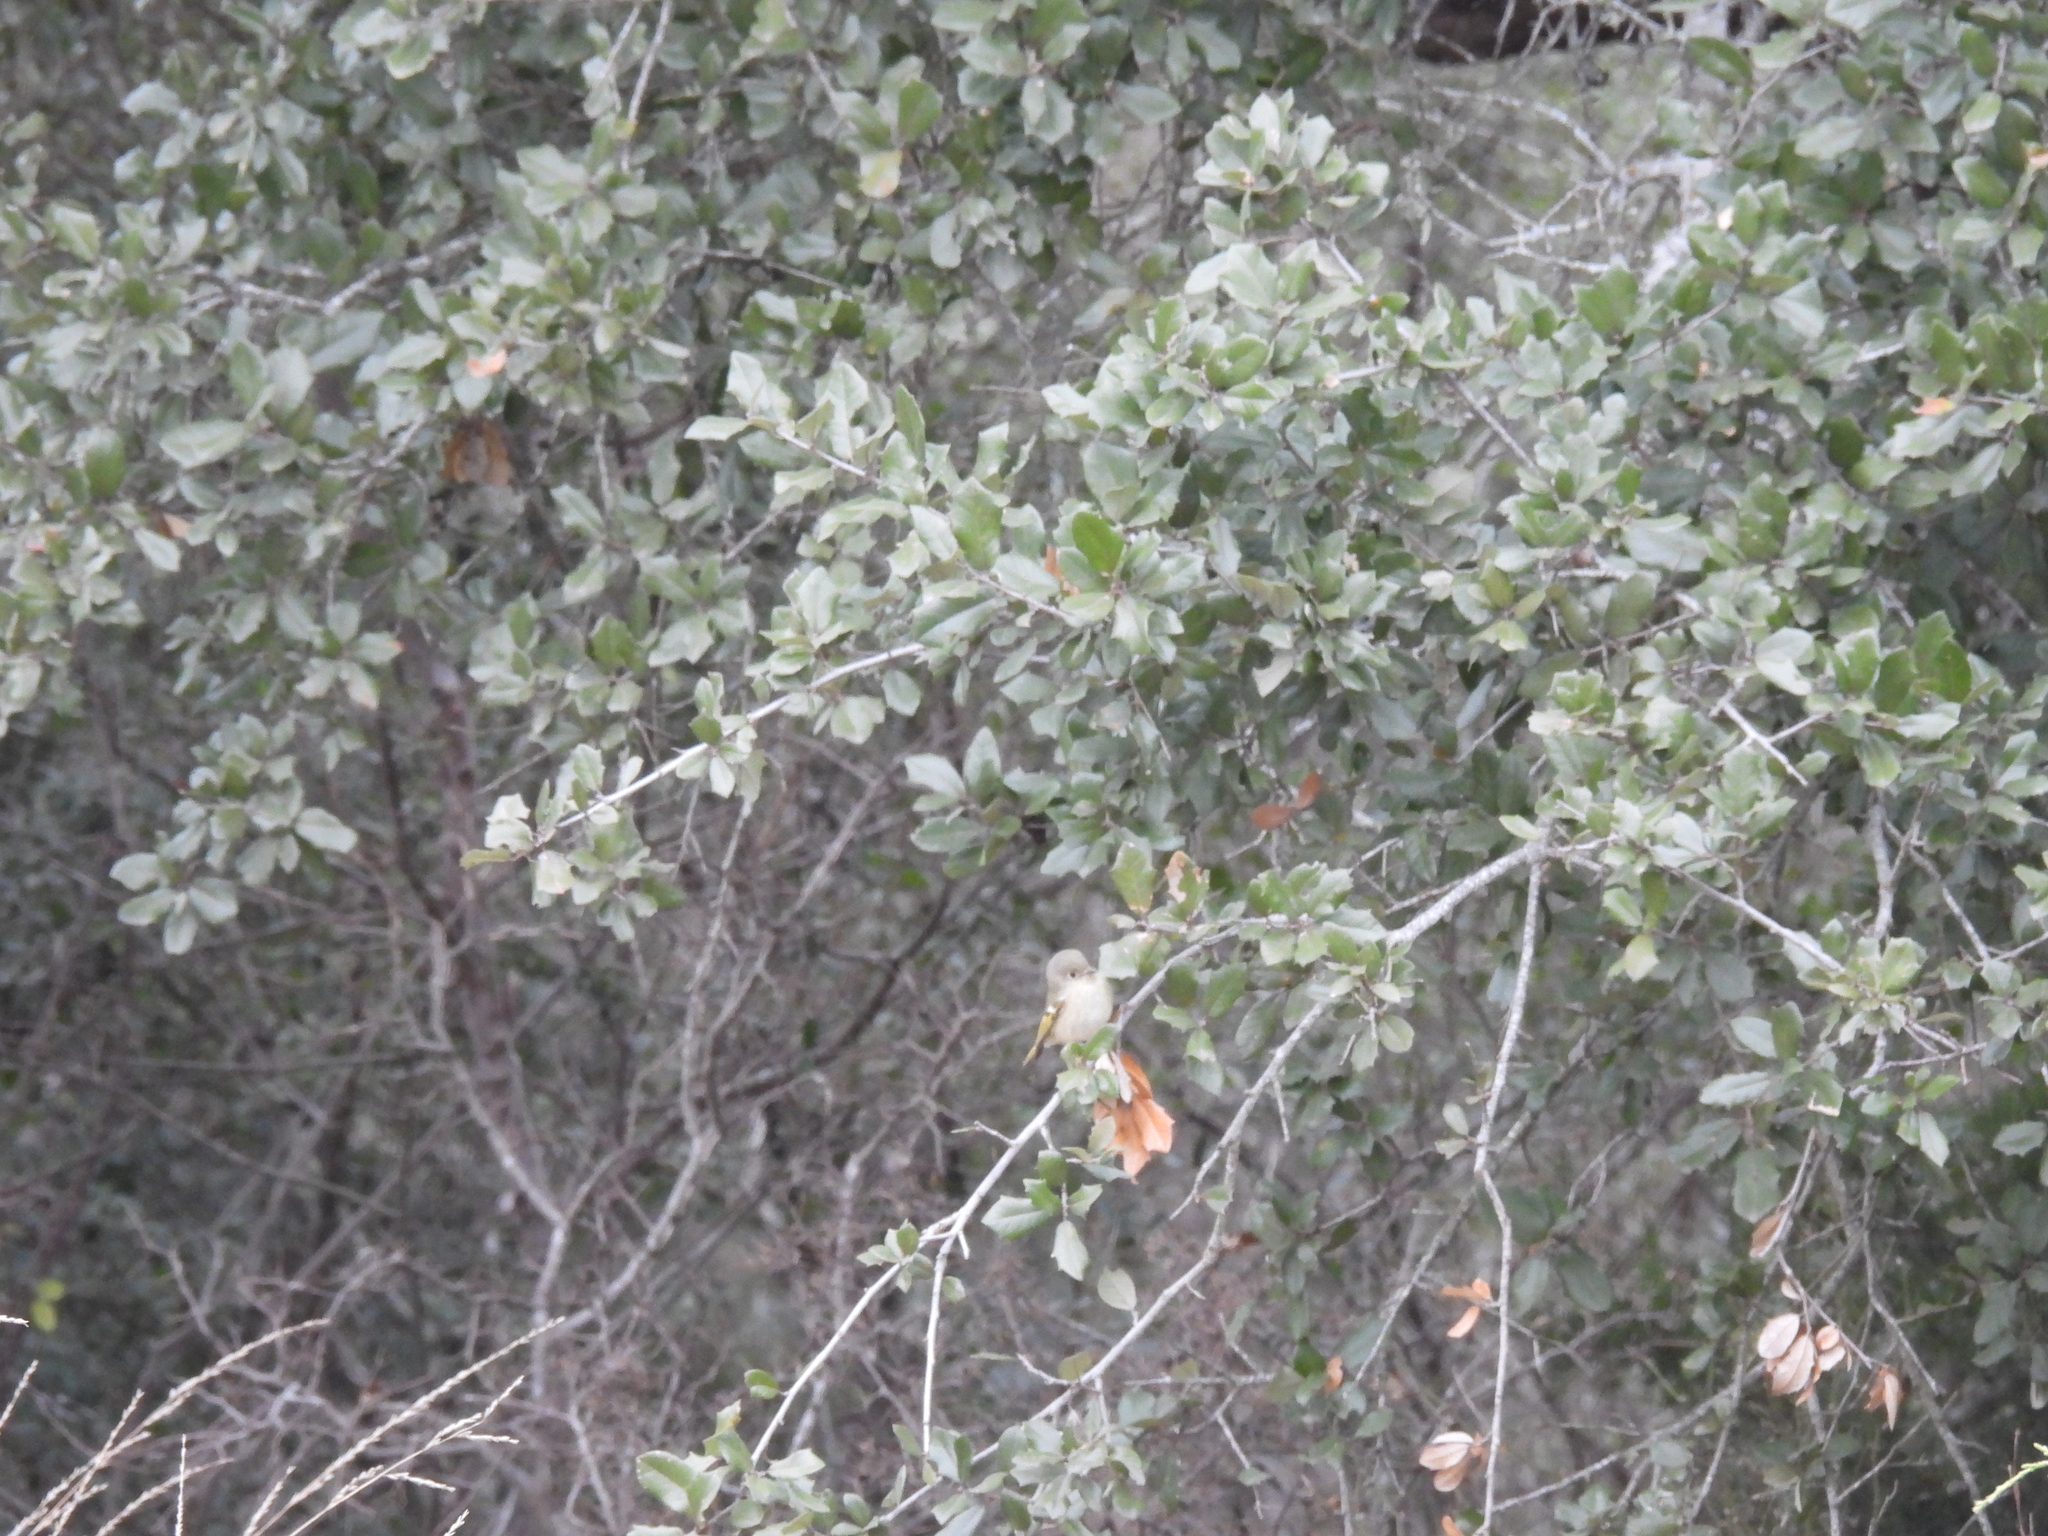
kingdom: Animalia
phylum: Chordata
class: Aves
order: Passeriformes
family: Regulidae
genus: Regulus
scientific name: Regulus calendula
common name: Ruby-crowned kinglet
